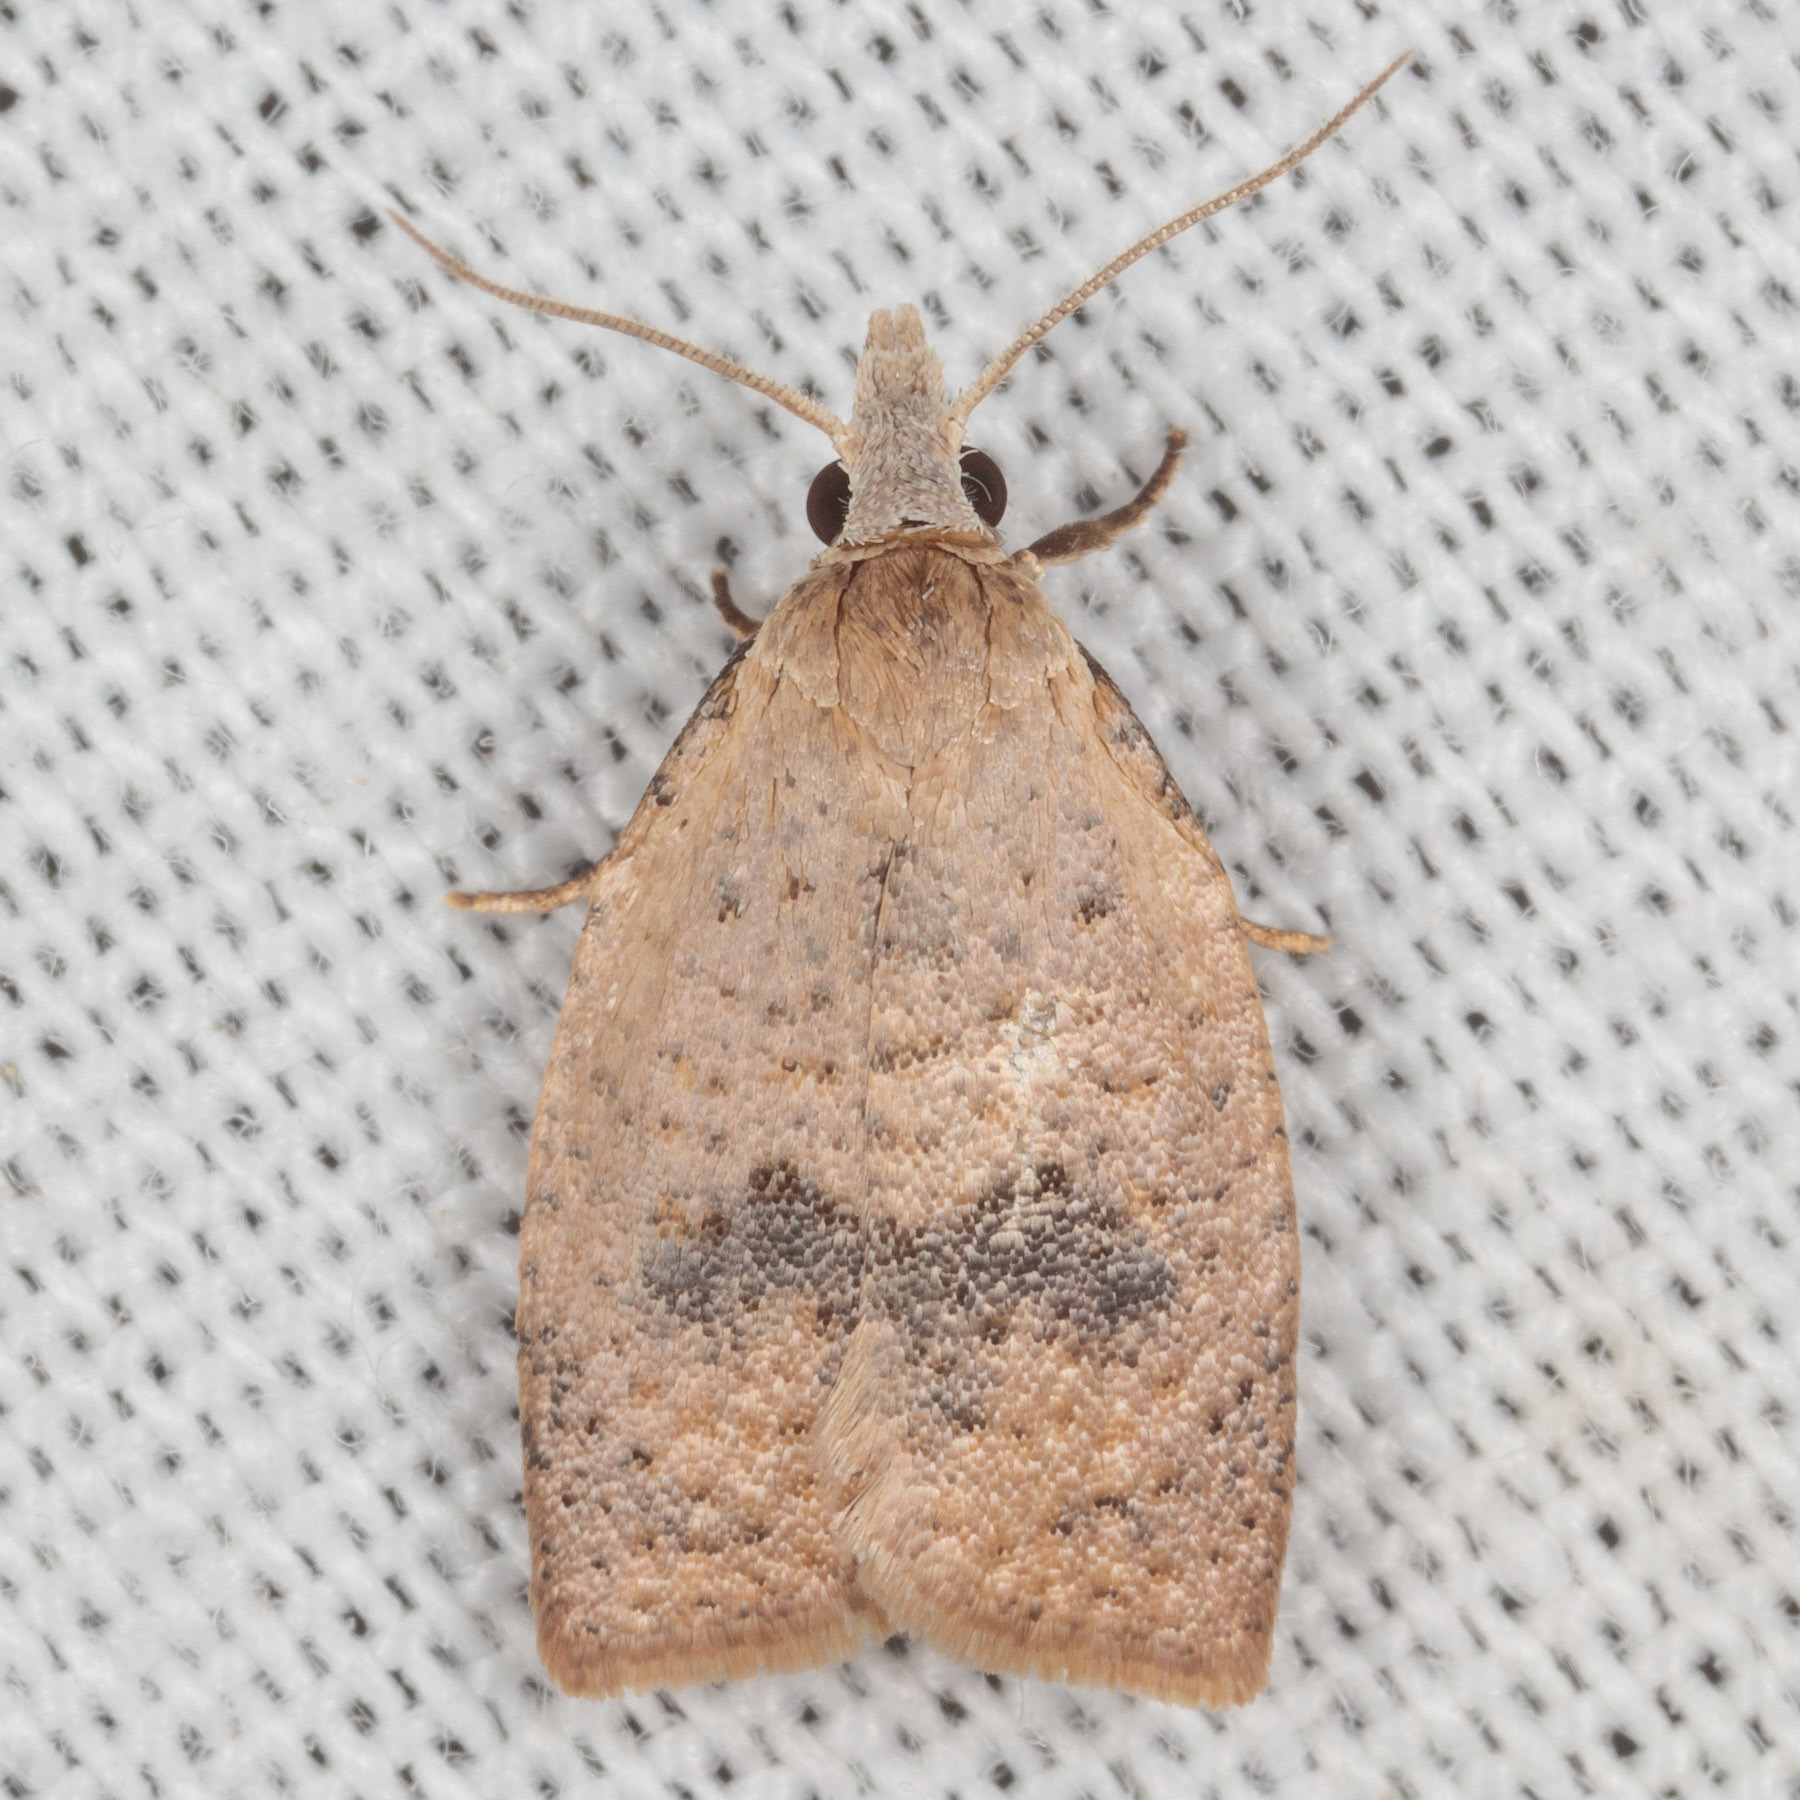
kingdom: Animalia
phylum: Arthropoda
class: Insecta
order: Lepidoptera
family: Tortricidae
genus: Sparganothoides
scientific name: Sparganothoides lentiginosana
